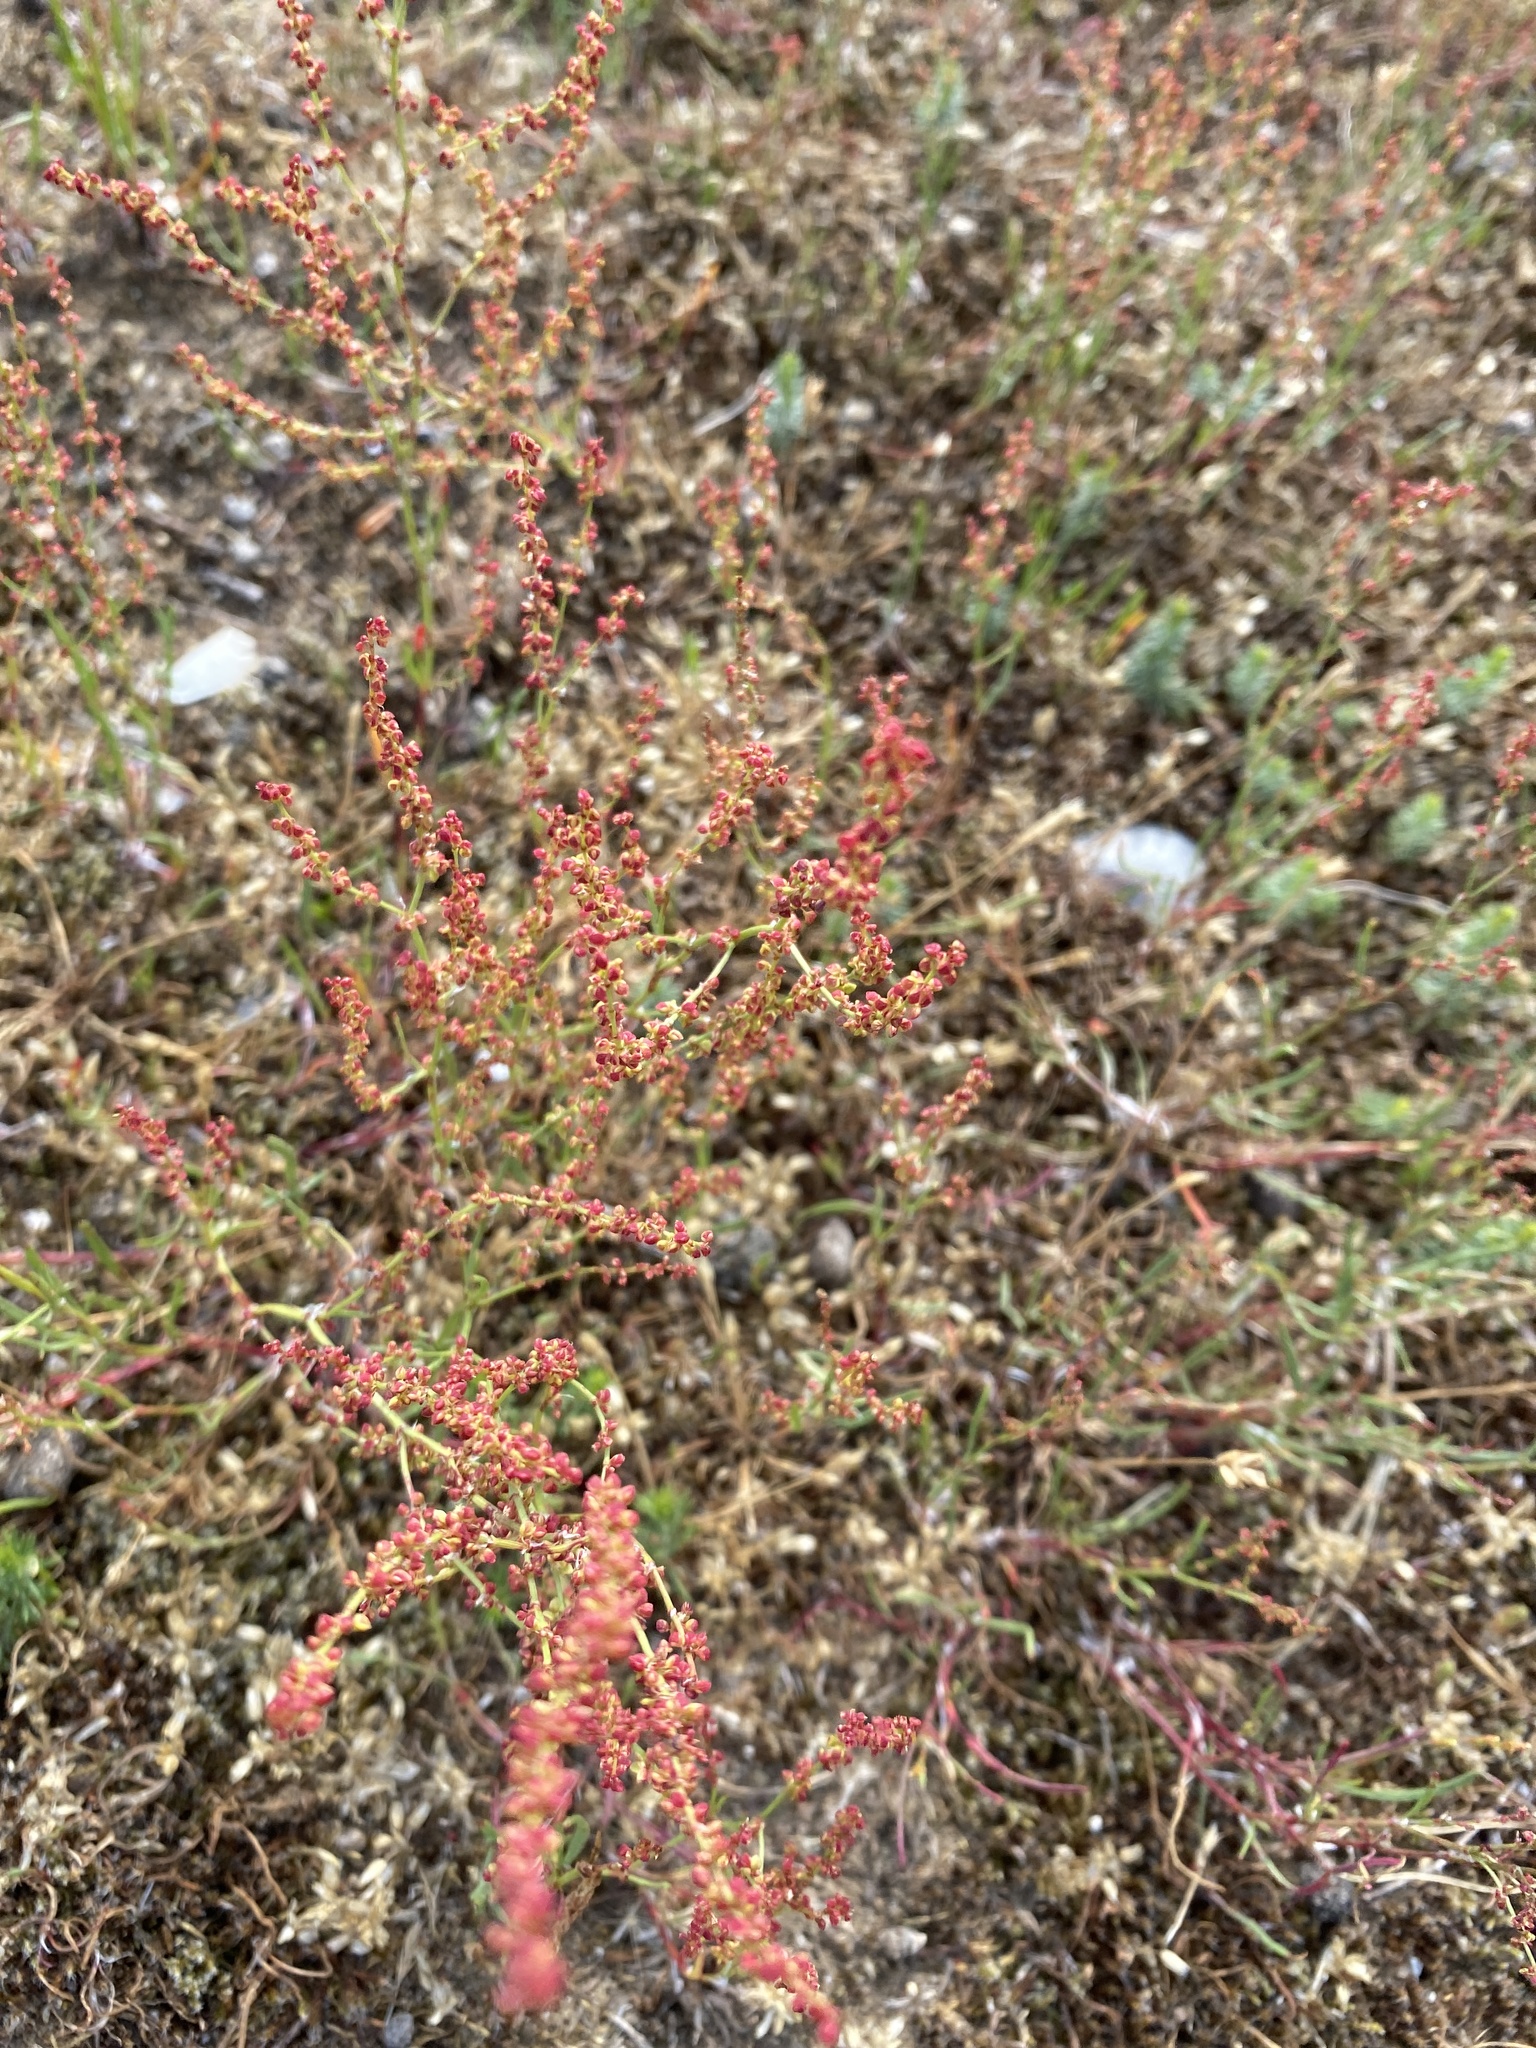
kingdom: Plantae
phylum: Tracheophyta
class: Magnoliopsida
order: Caryophyllales
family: Polygonaceae
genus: Rumex
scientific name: Rumex acetosella
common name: Common sheep sorrel
